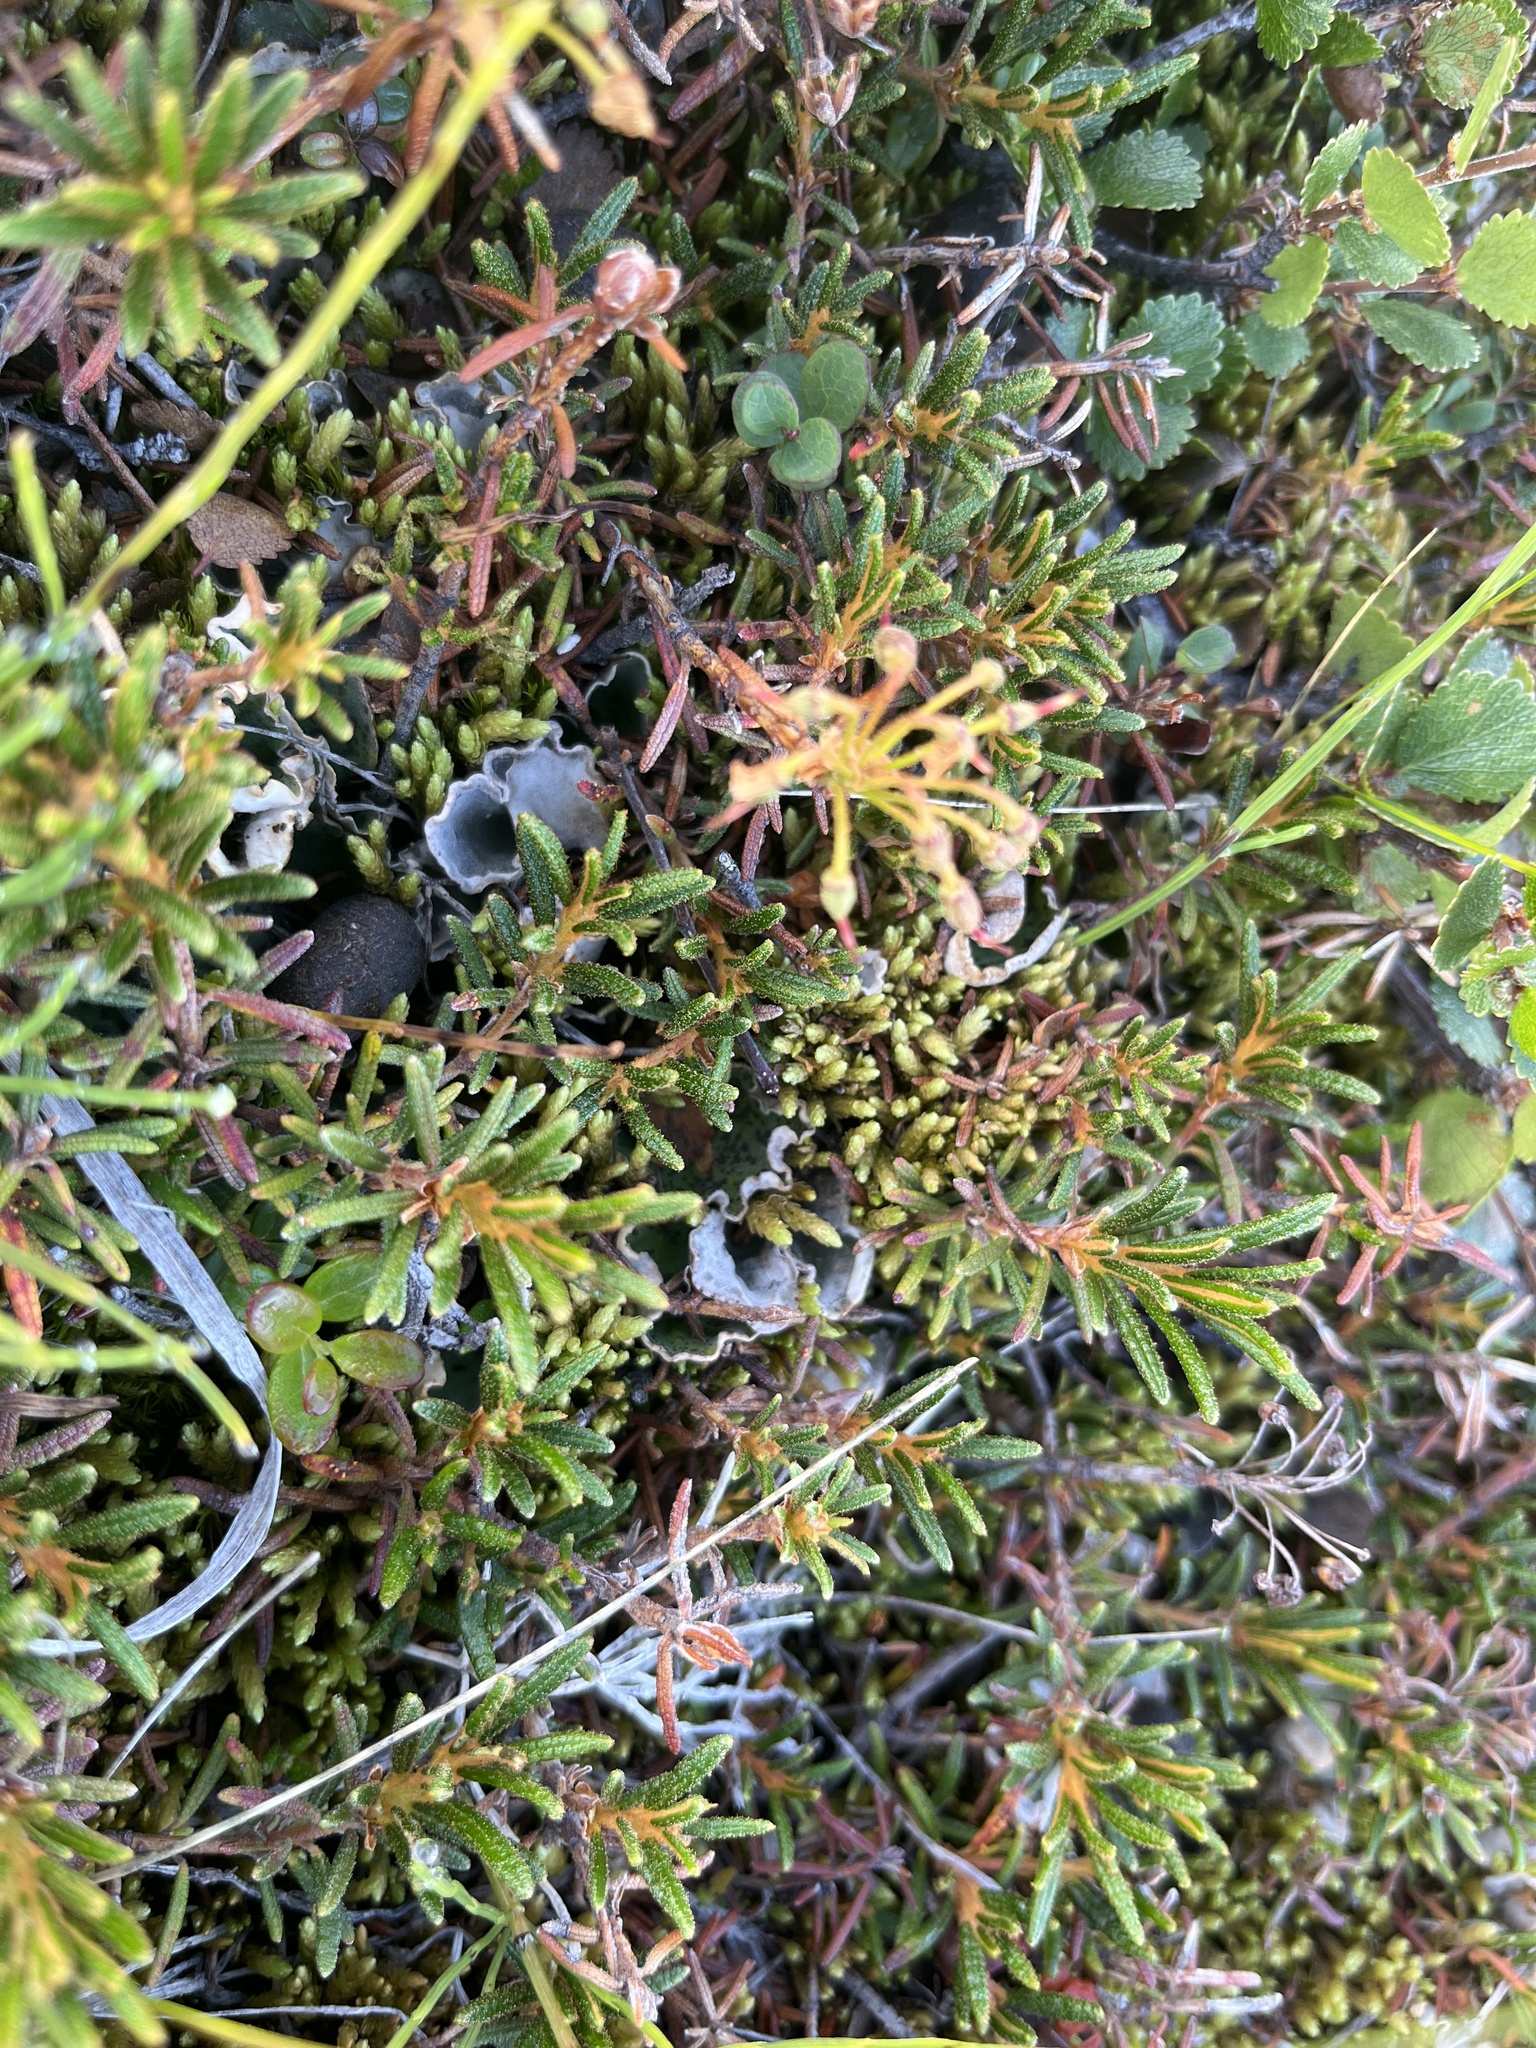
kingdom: Plantae
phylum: Tracheophyta
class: Magnoliopsida
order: Ericales
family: Ericaceae
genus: Rhododendron
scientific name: Rhododendron tomentosum
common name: Marsh labrador tea
